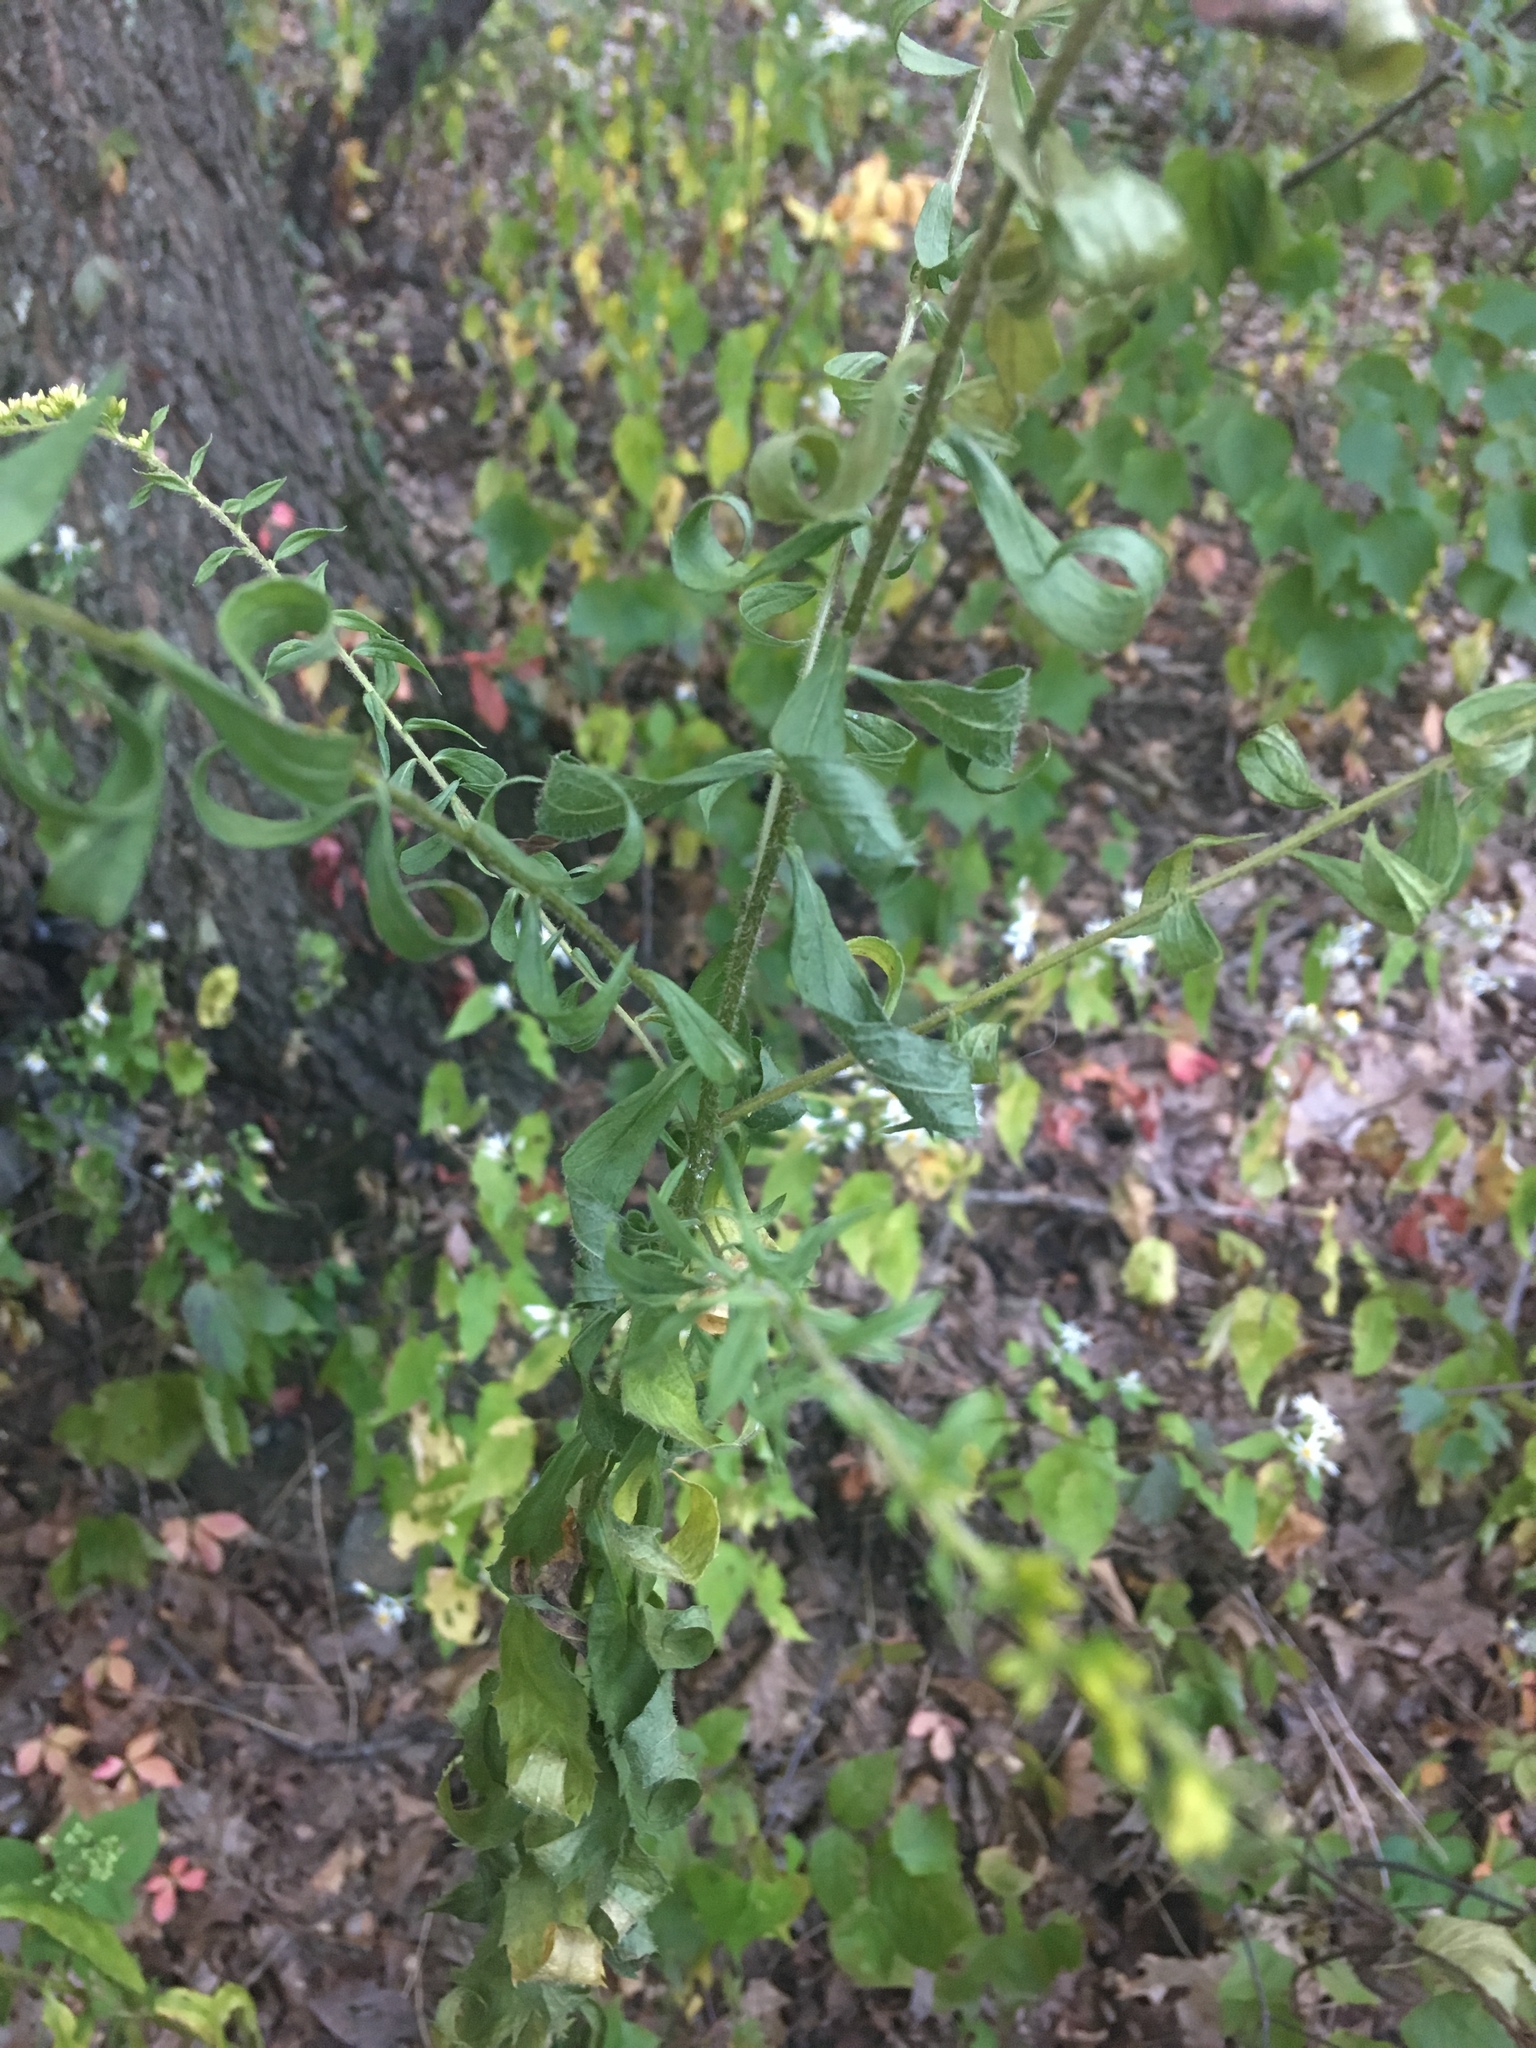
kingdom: Plantae
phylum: Tracheophyta
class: Magnoliopsida
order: Asterales
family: Asteraceae
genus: Solidago
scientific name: Solidago rugosa
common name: Rough-stemmed goldenrod
